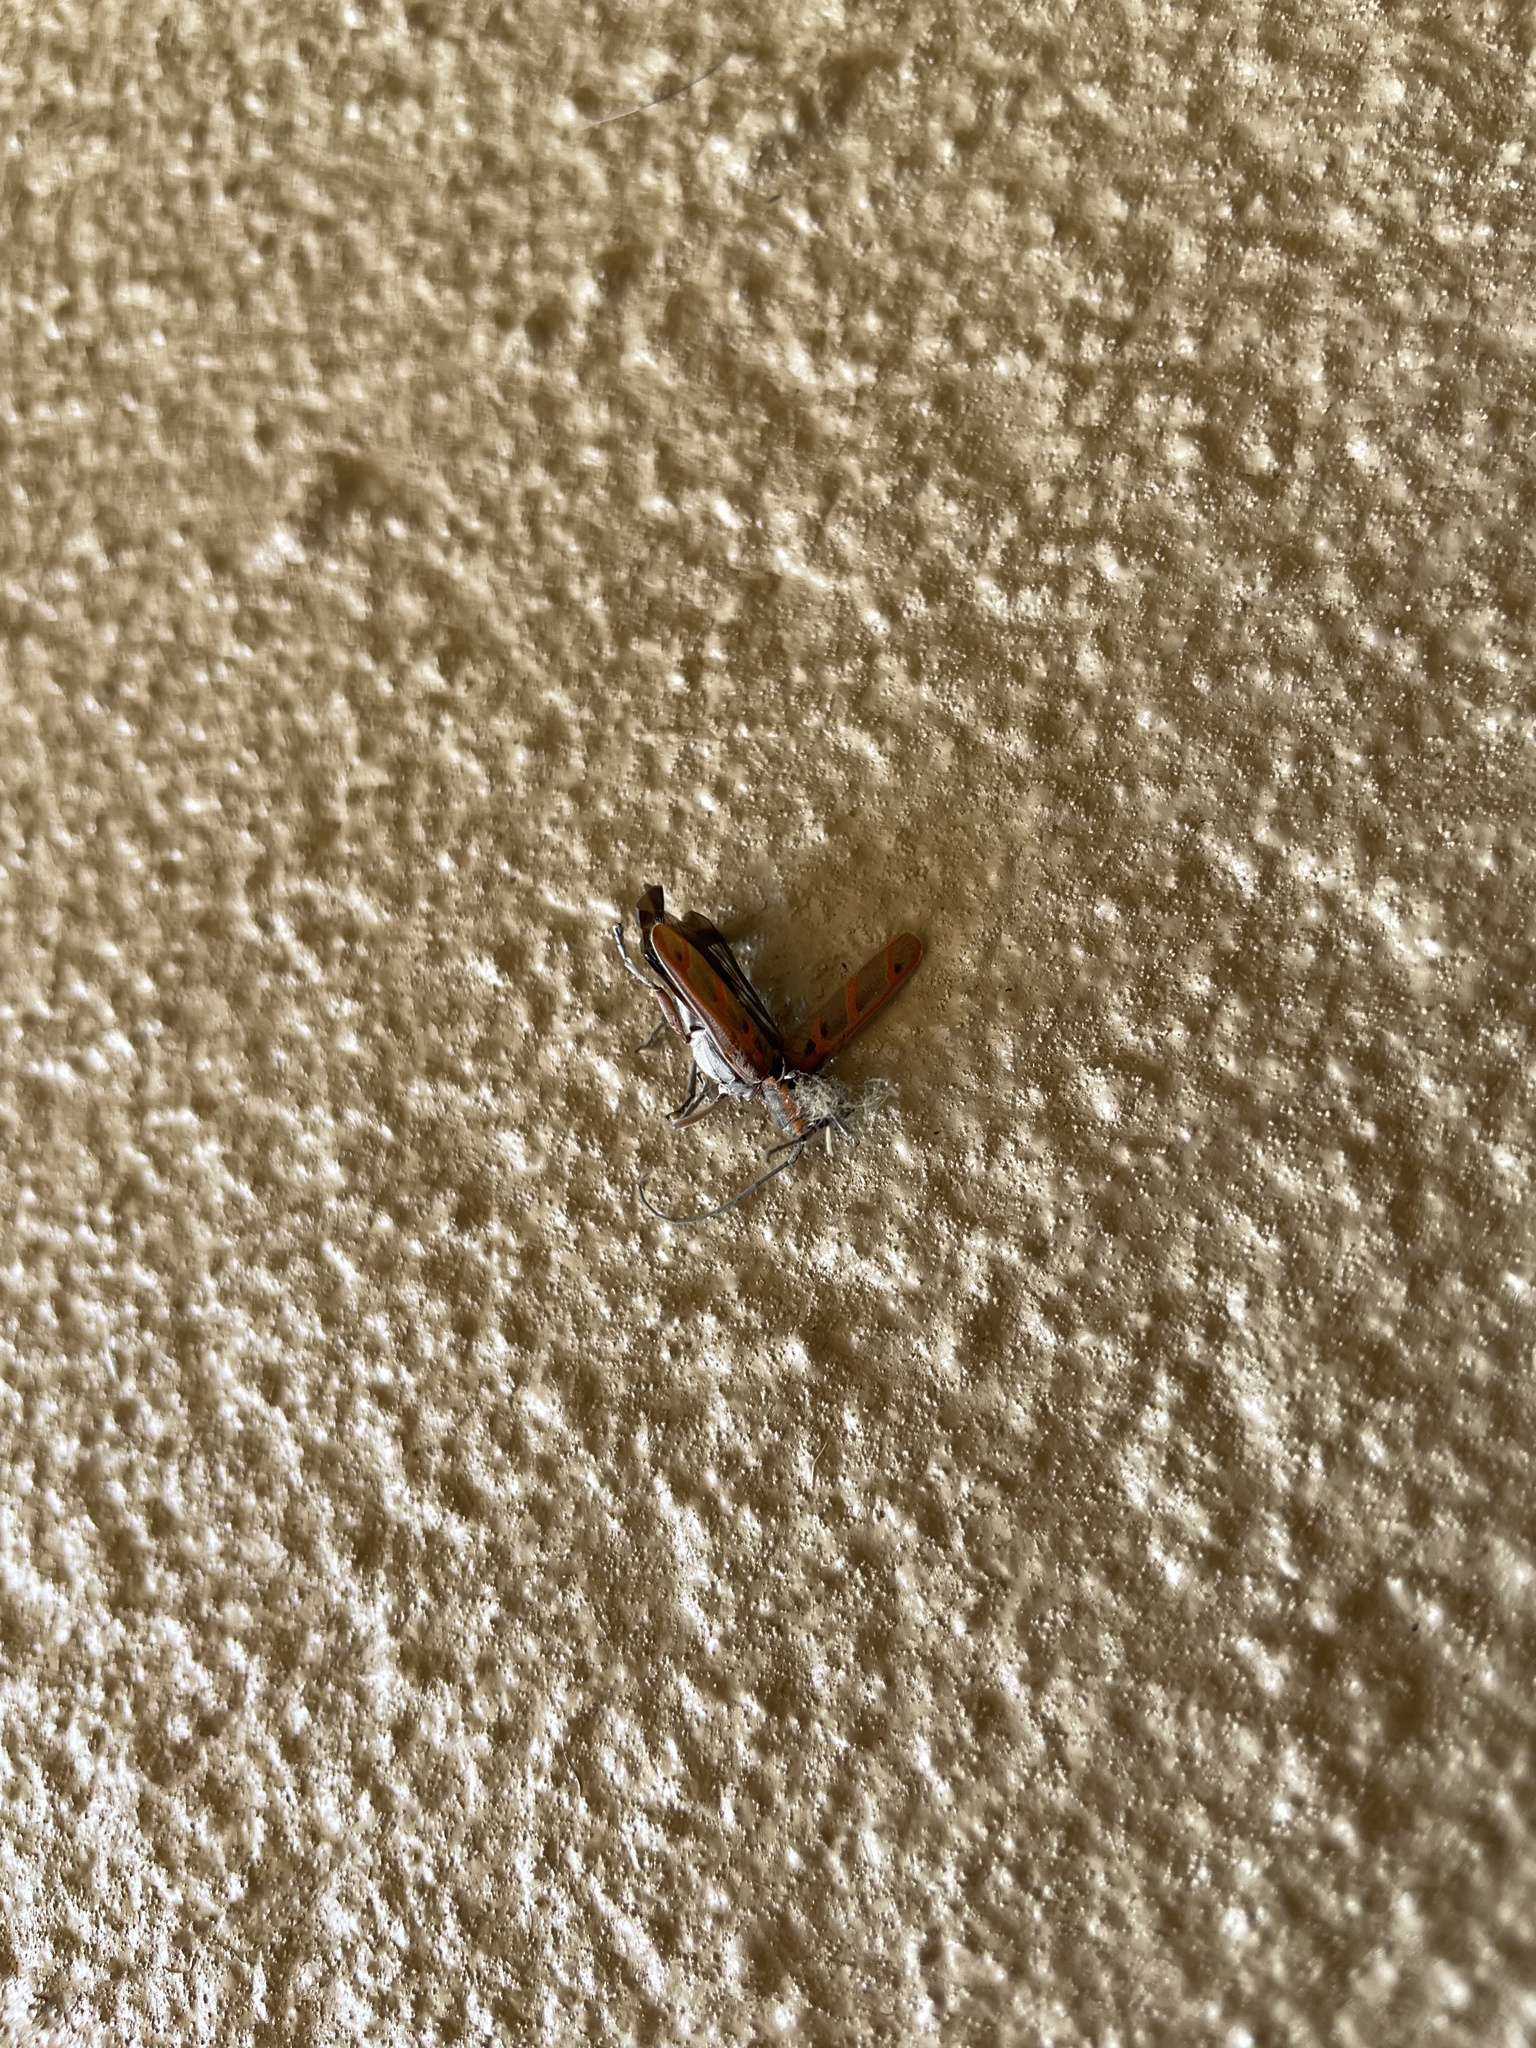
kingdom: Animalia
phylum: Arthropoda
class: Insecta
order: Coleoptera
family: Cerambycidae
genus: Saperda
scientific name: Saperda tridentata
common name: Elm borer
